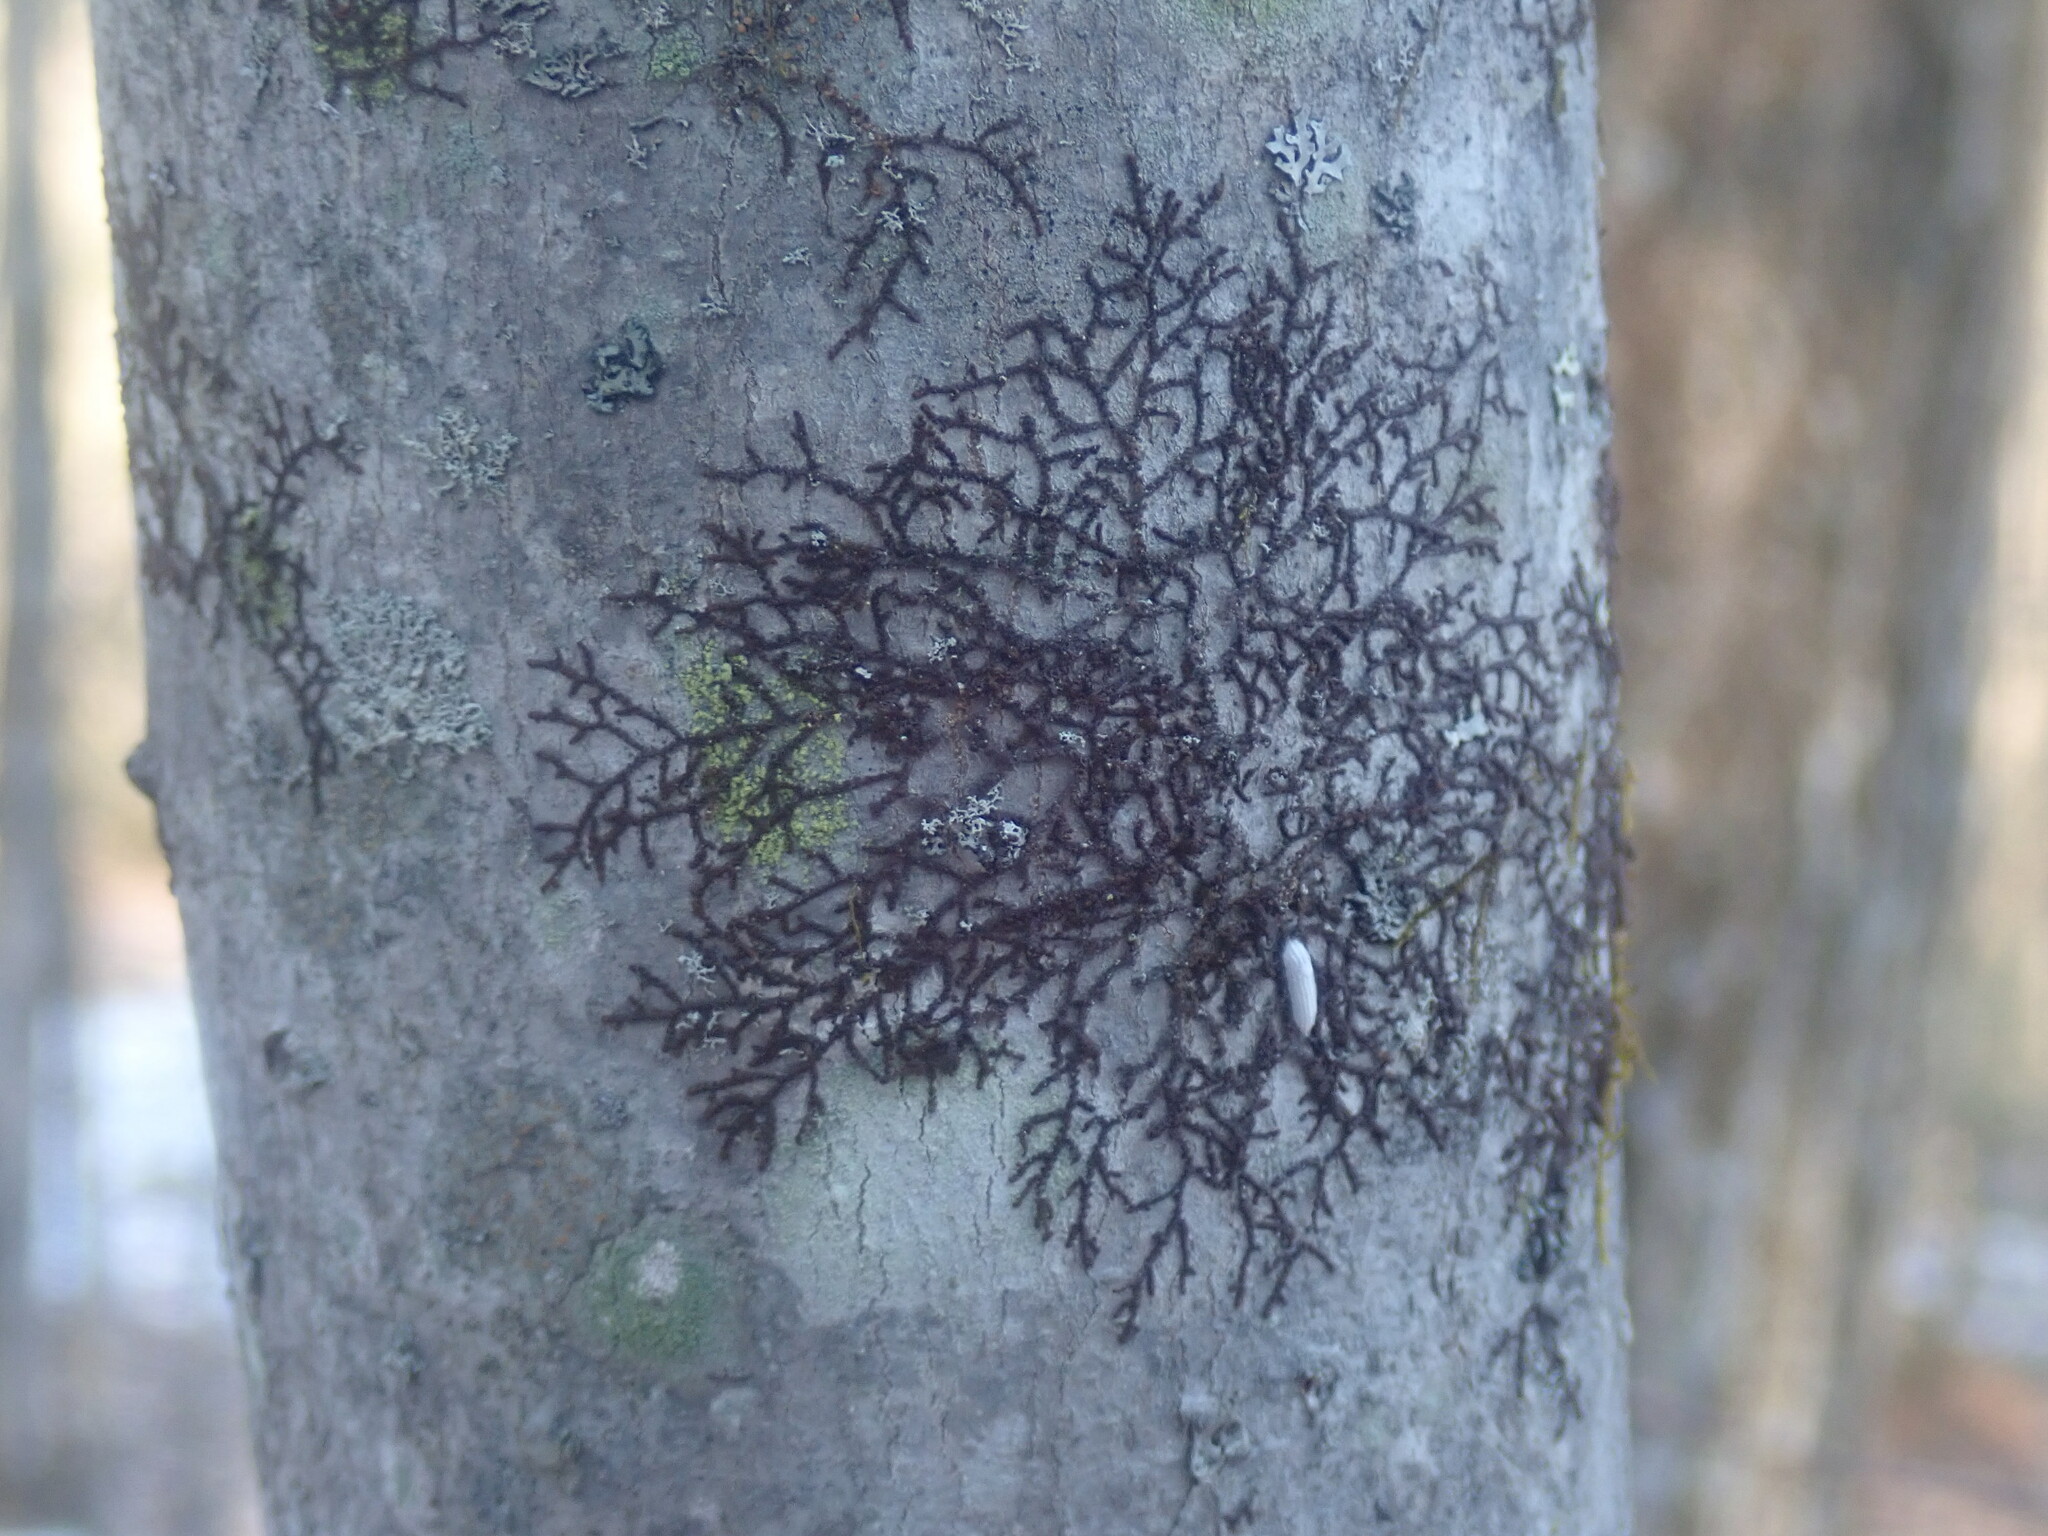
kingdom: Plantae
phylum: Marchantiophyta
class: Jungermanniopsida
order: Porellales
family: Frullaniaceae
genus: Frullania
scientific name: Frullania
